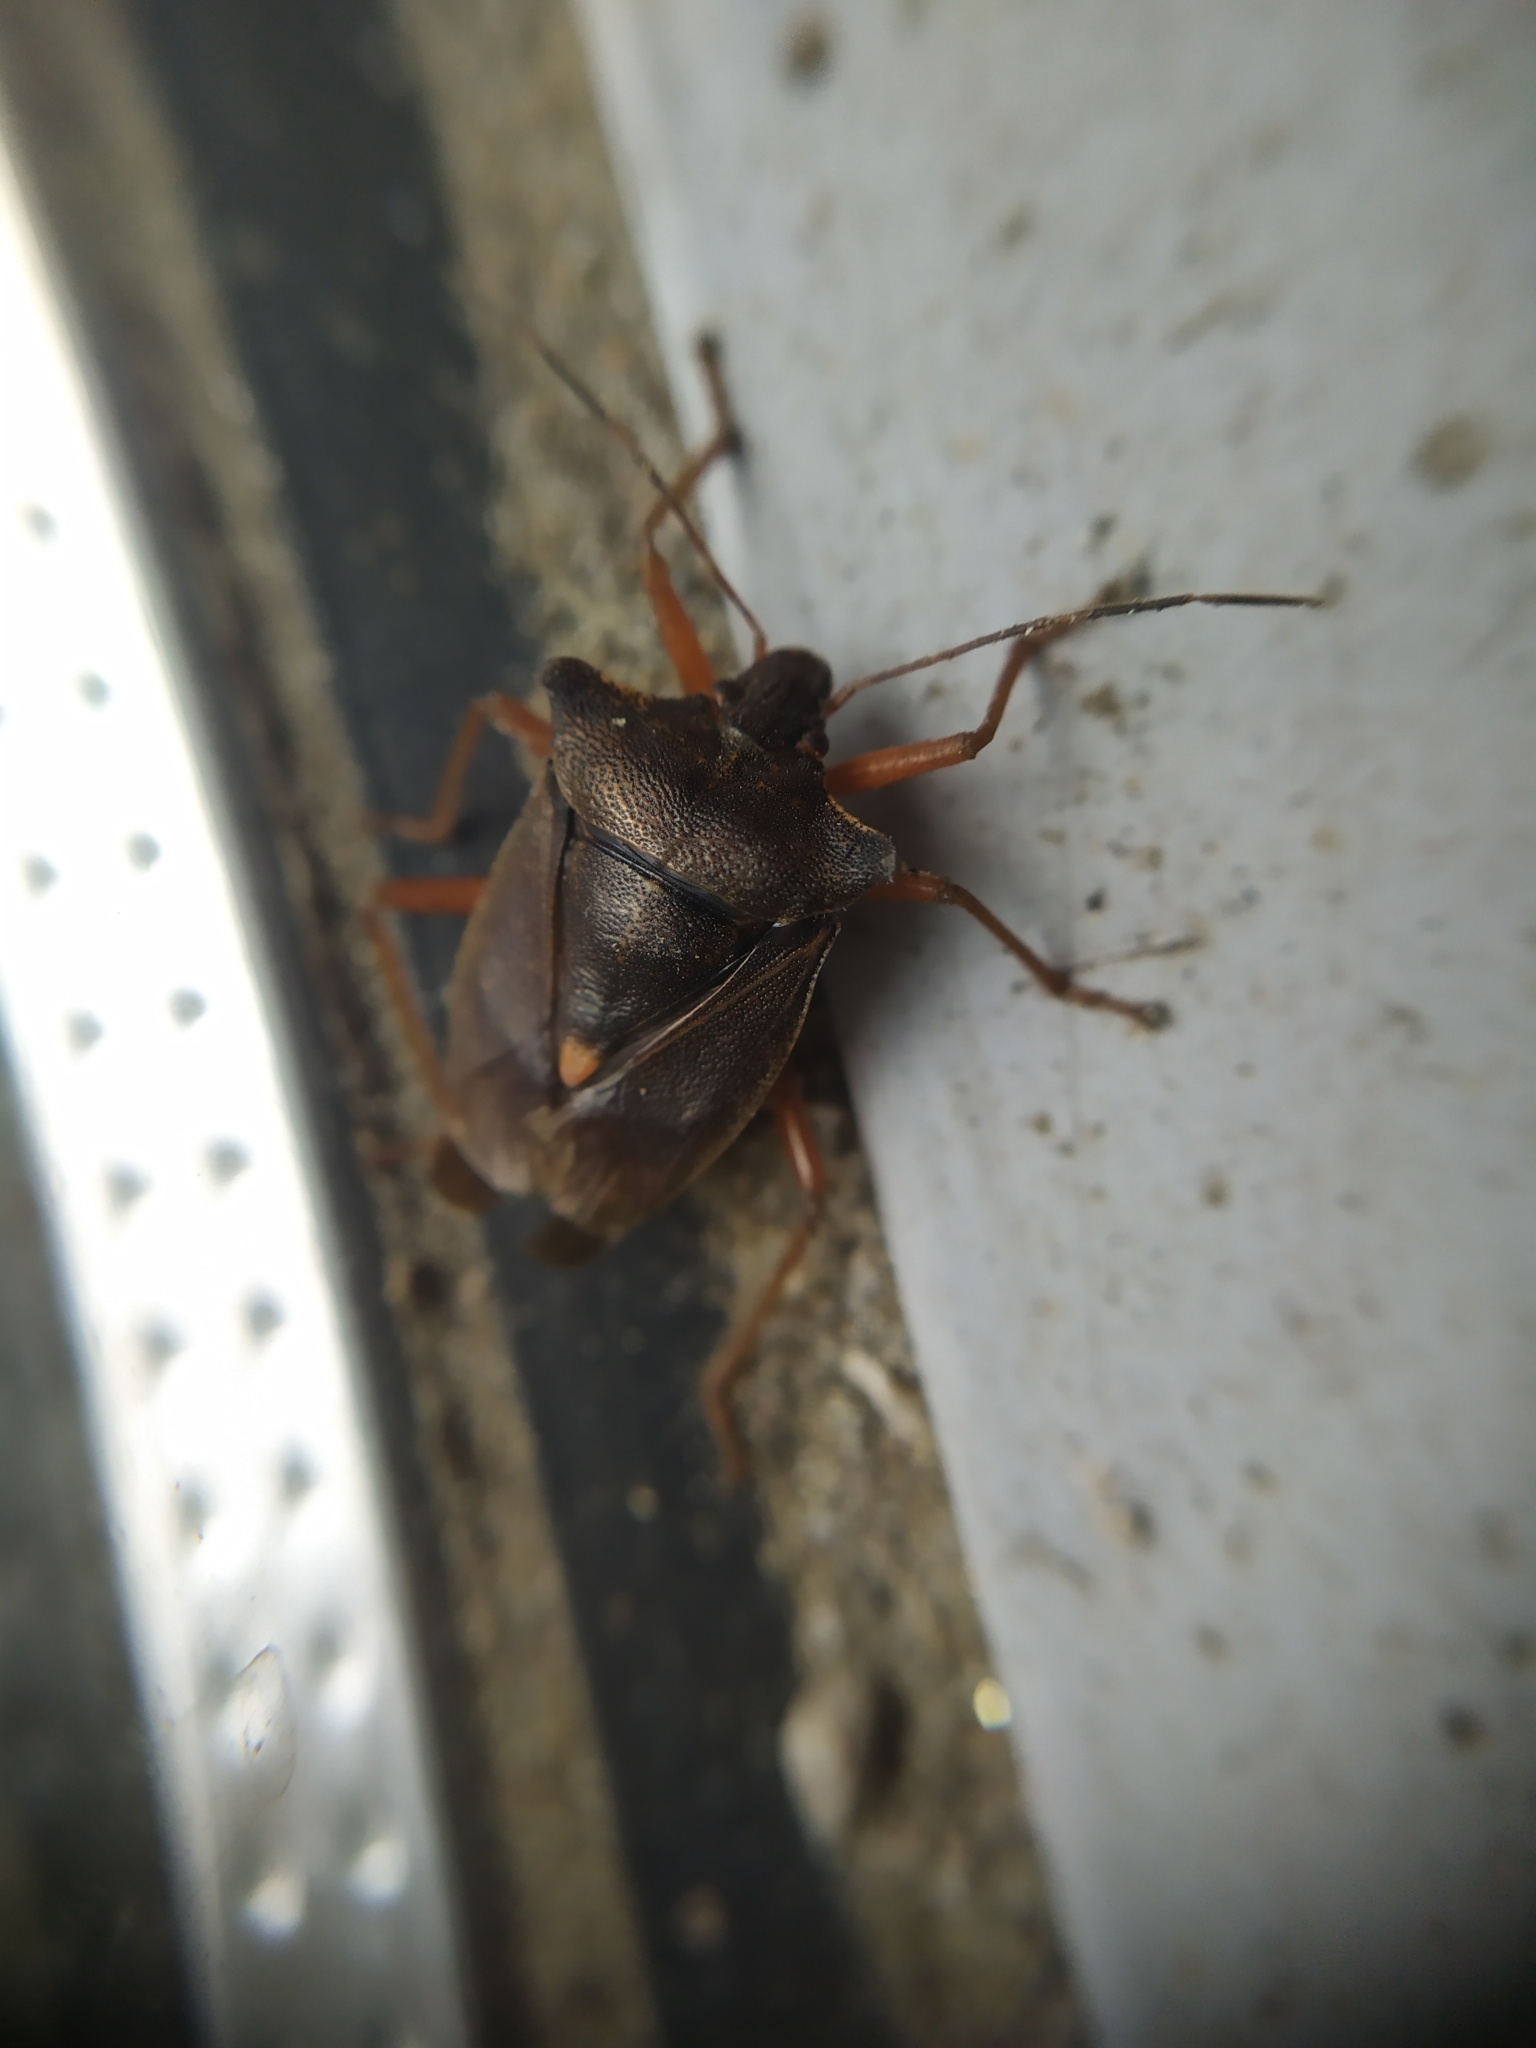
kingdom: Animalia
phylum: Arthropoda
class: Insecta
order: Hemiptera
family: Pentatomidae
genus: Pentatoma
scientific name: Pentatoma rufipes
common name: Forest bug
